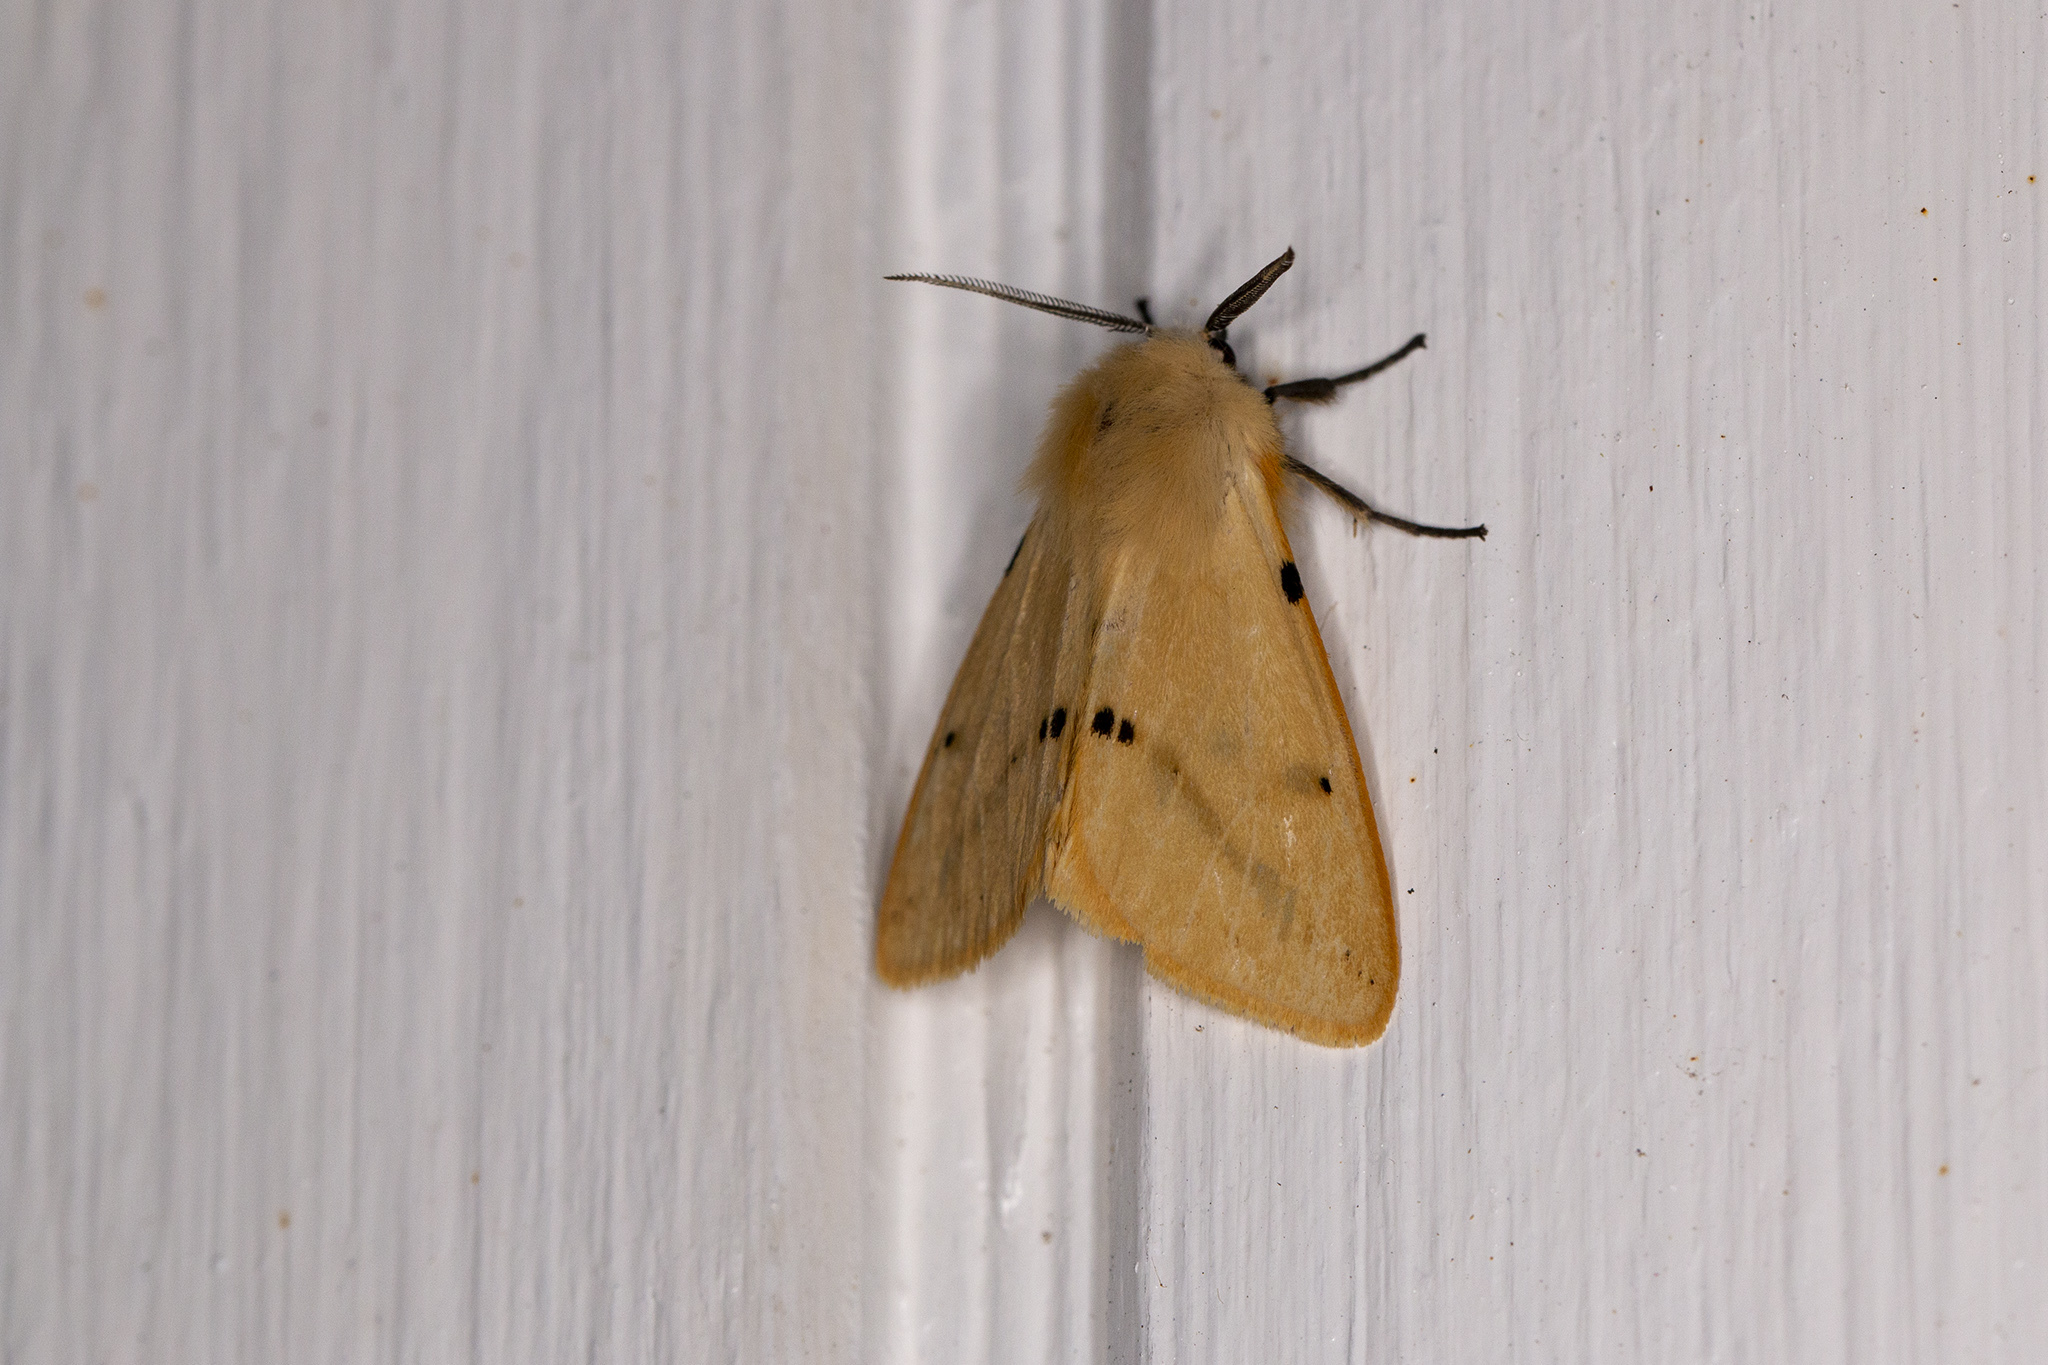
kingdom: Animalia
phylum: Arthropoda
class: Insecta
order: Lepidoptera
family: Erebidae
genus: Spilarctia
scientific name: Spilarctia lutea
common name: Buff ermine
